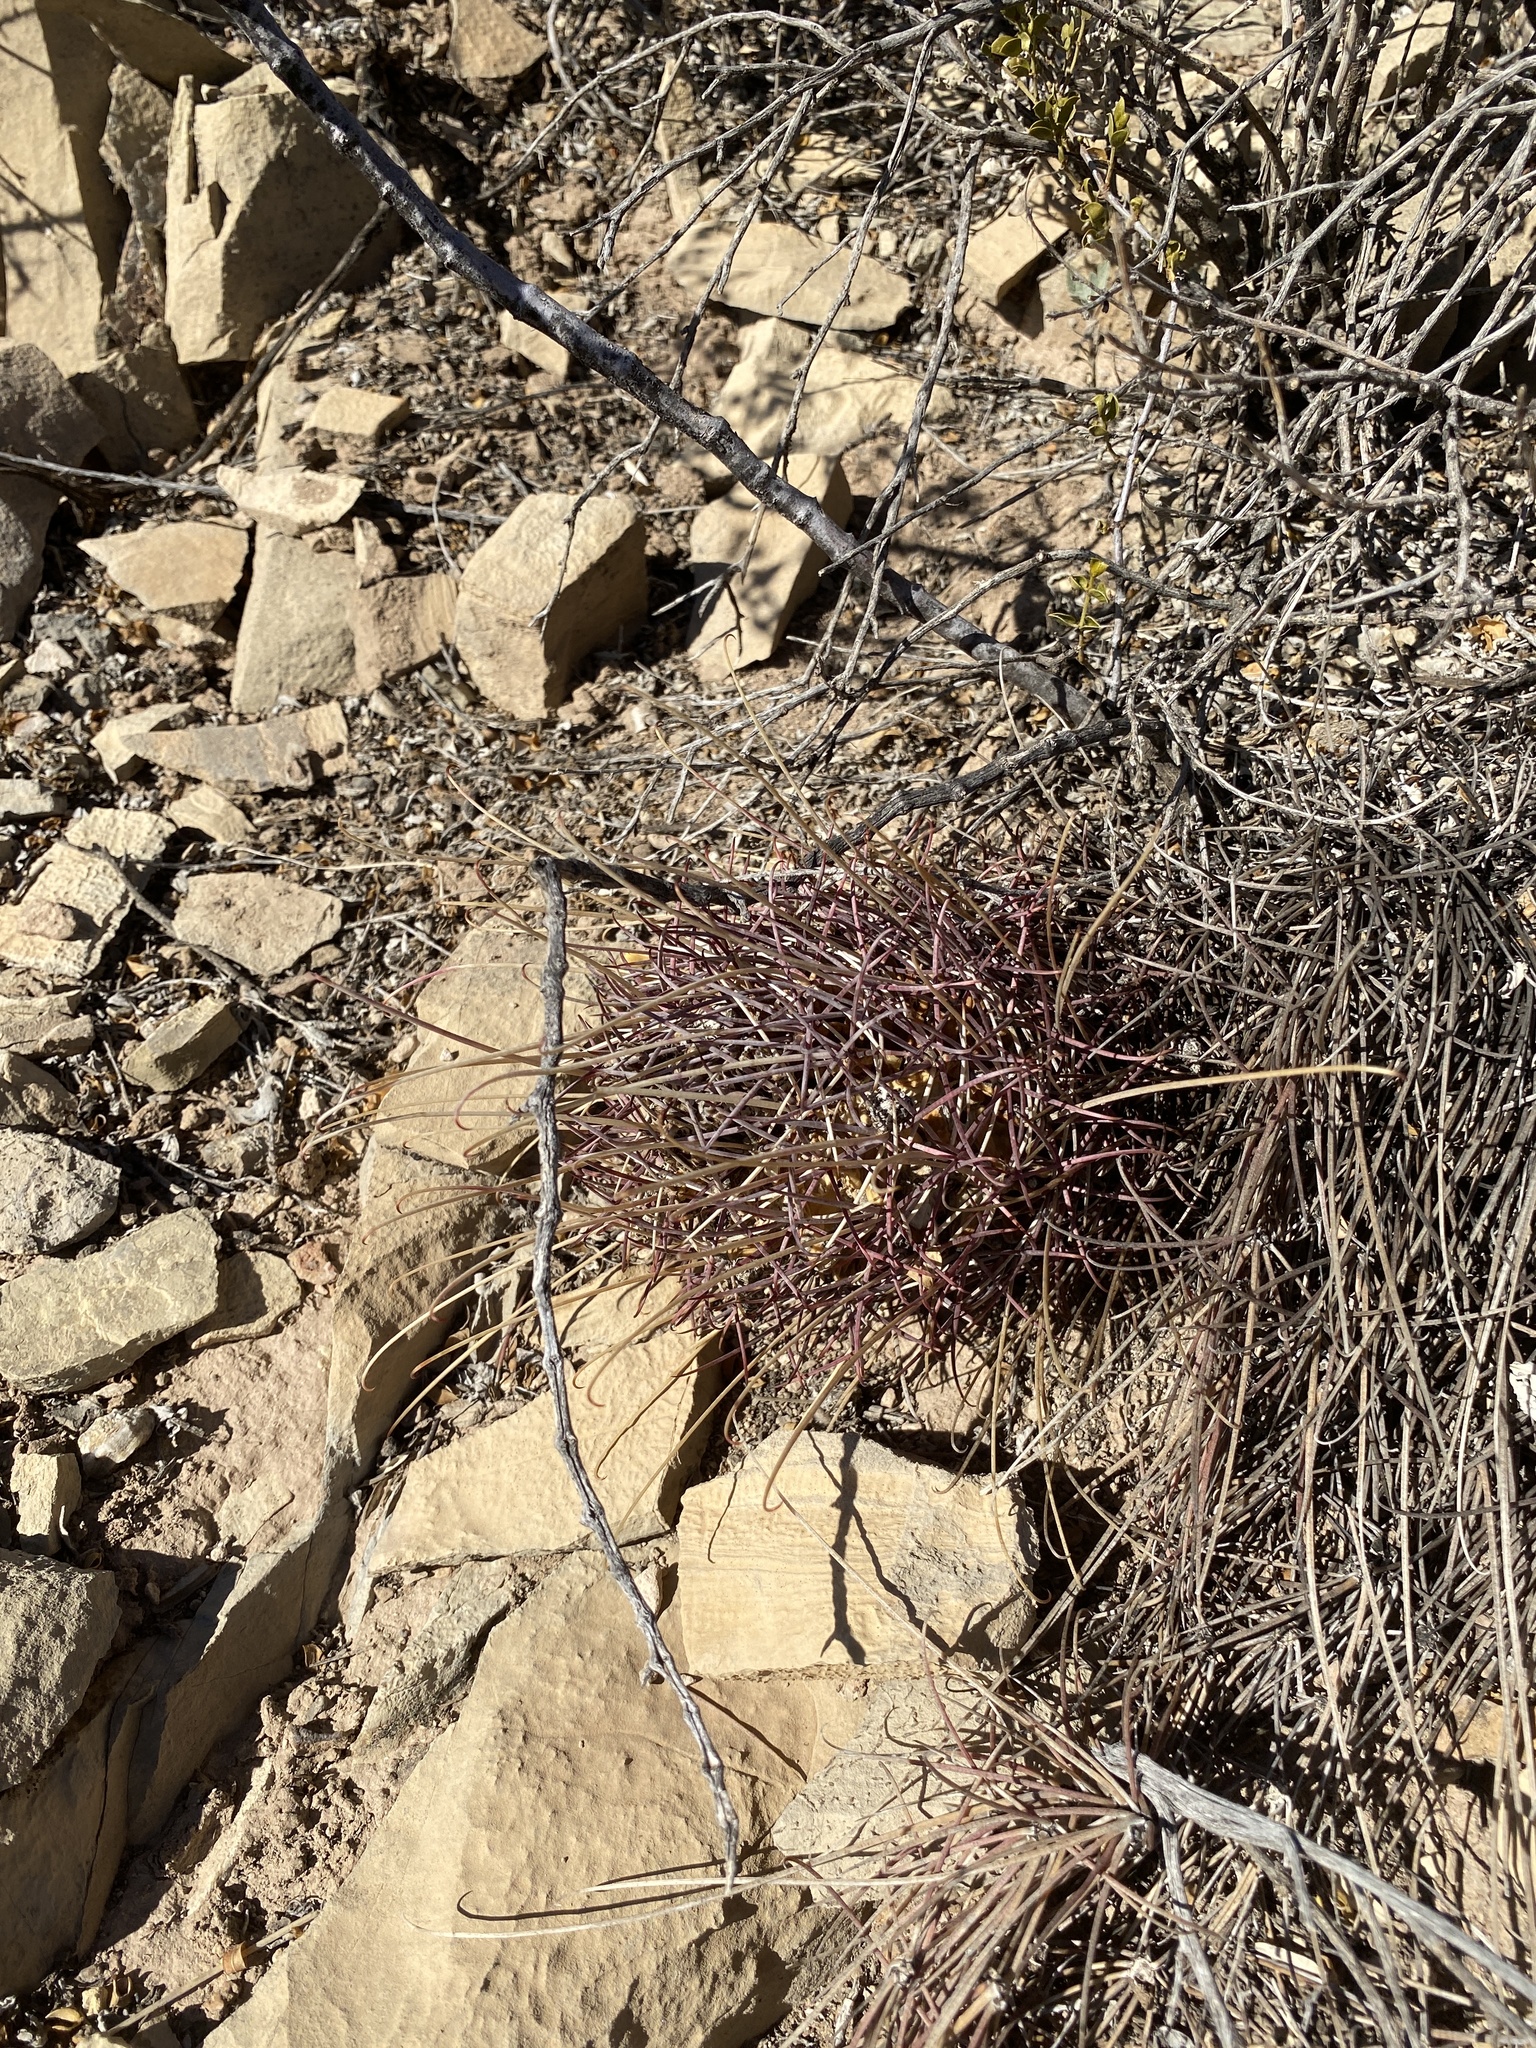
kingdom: Plantae
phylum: Tracheophyta
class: Magnoliopsida
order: Caryophyllales
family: Cactaceae
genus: Ferocactus
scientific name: Ferocactus uncinatus
